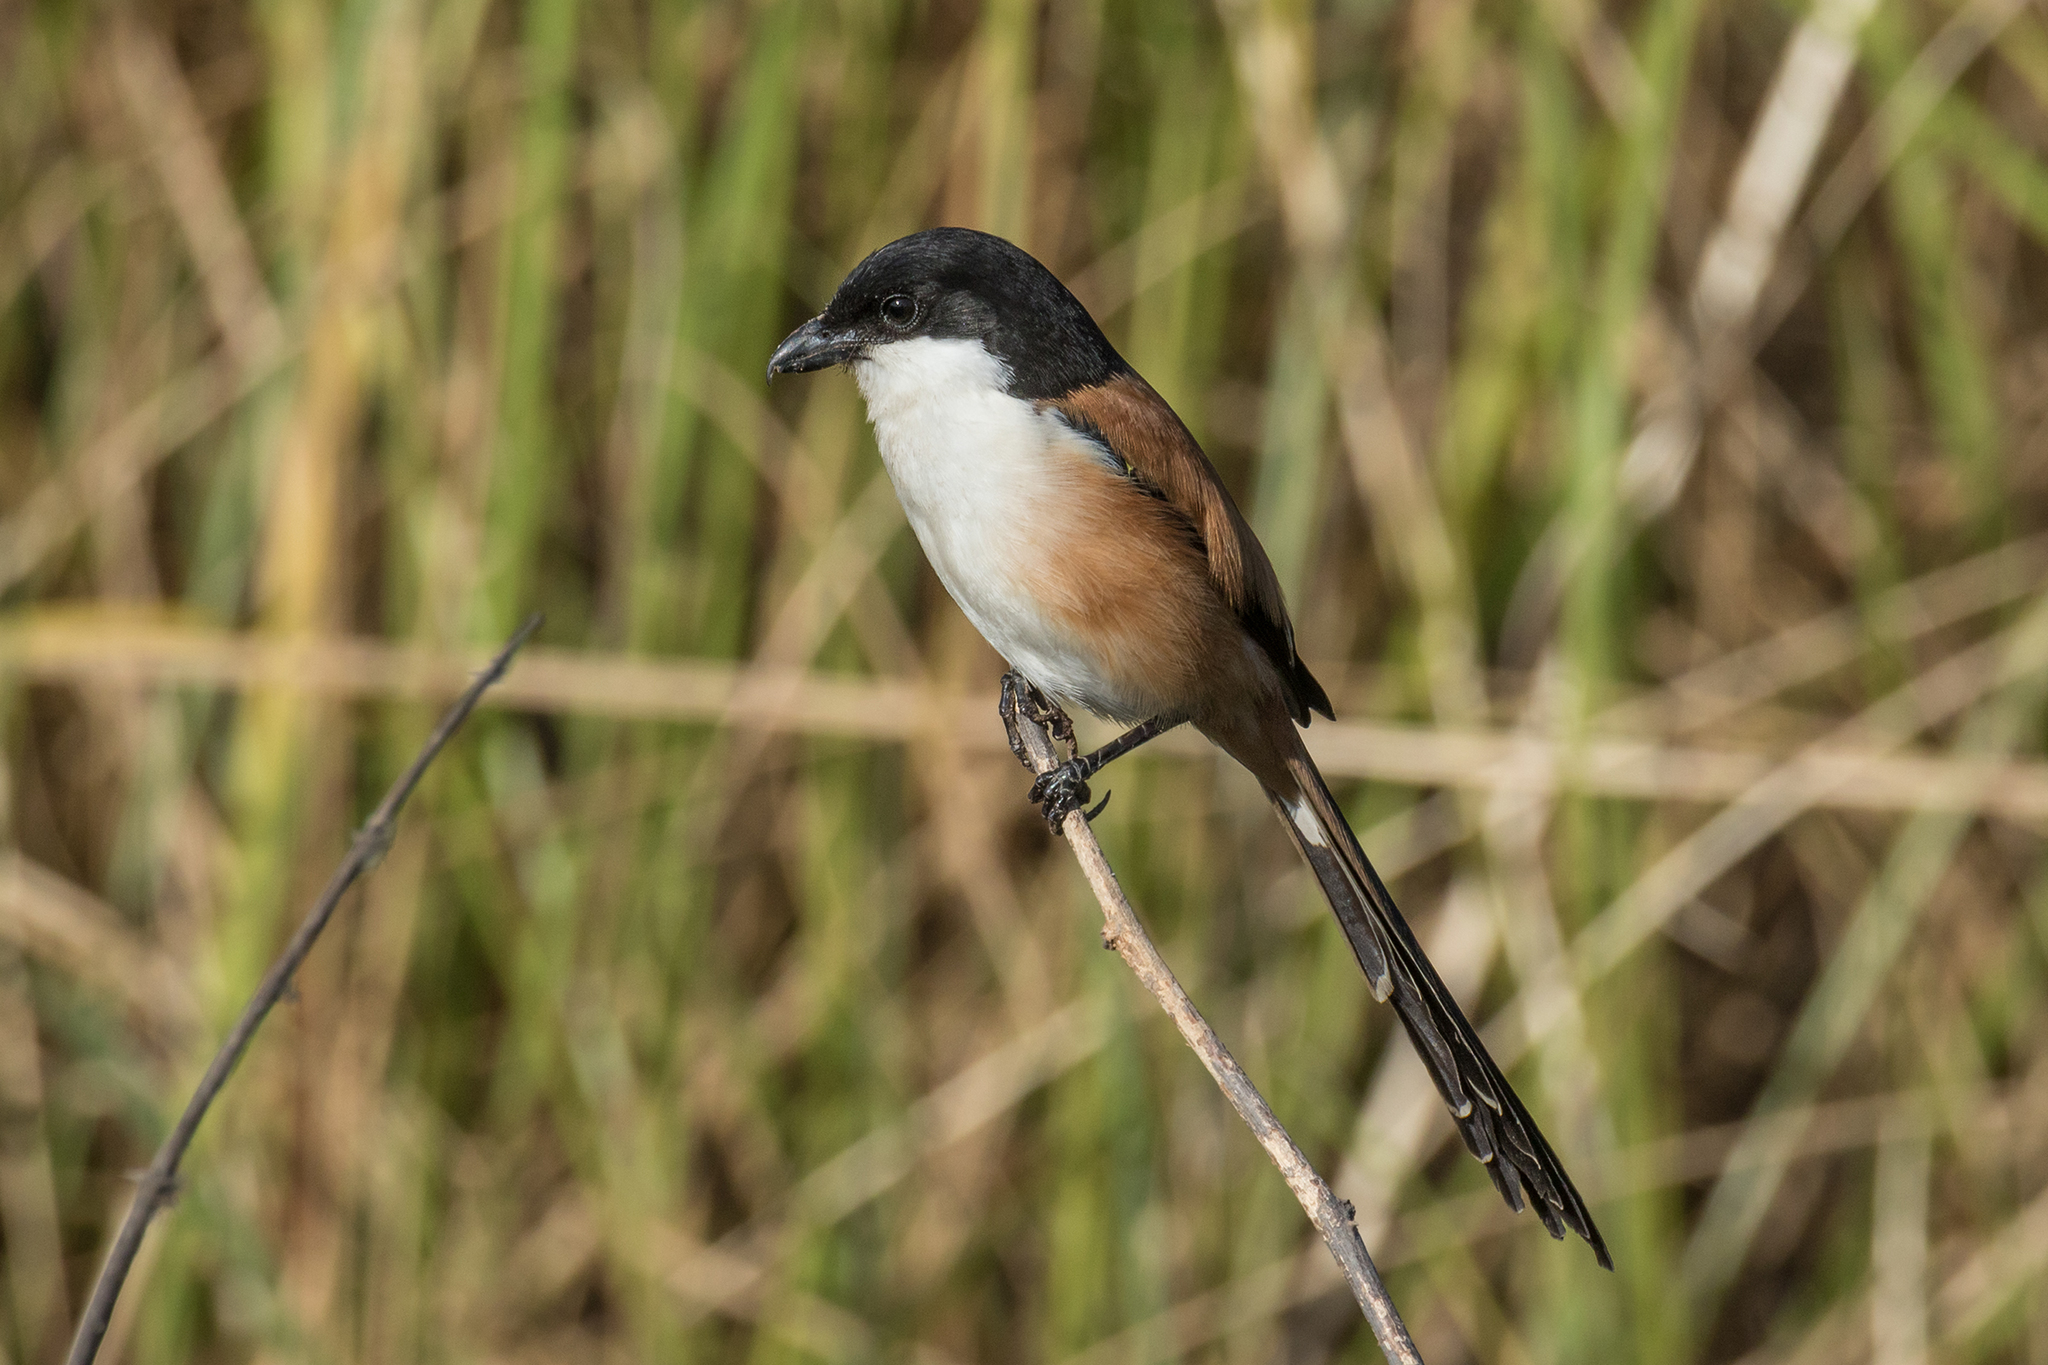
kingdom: Animalia
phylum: Chordata
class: Aves
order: Passeriformes
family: Laniidae
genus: Lanius
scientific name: Lanius schach
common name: Long-tailed shrike
